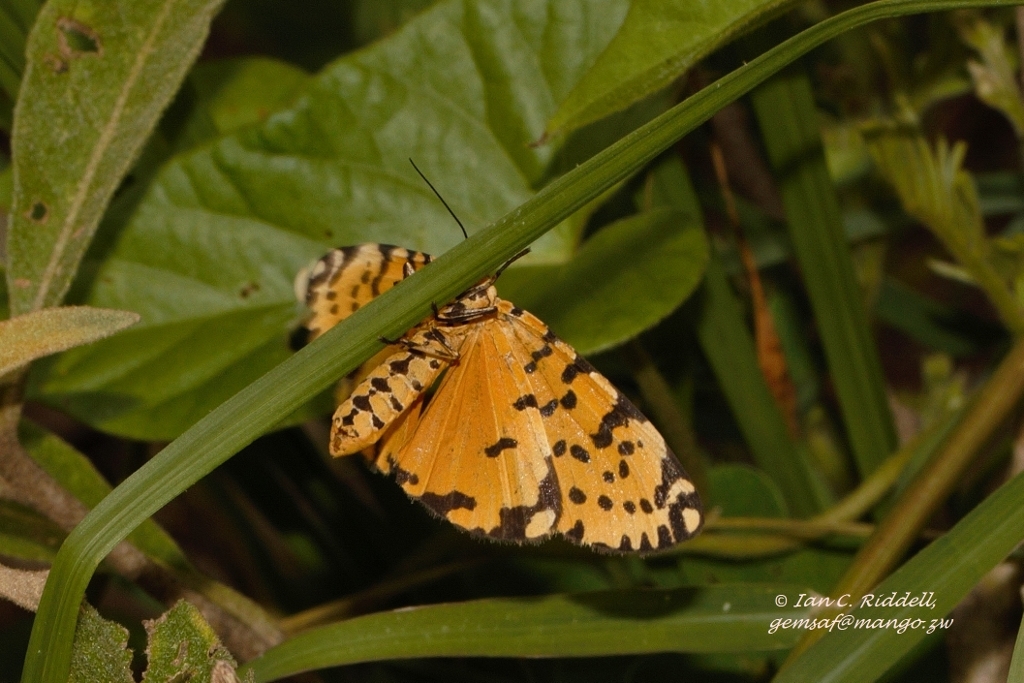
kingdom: Animalia
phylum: Arthropoda
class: Insecta
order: Lepidoptera
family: Erebidae
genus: Argina
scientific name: Argina Alytarchia amanda
